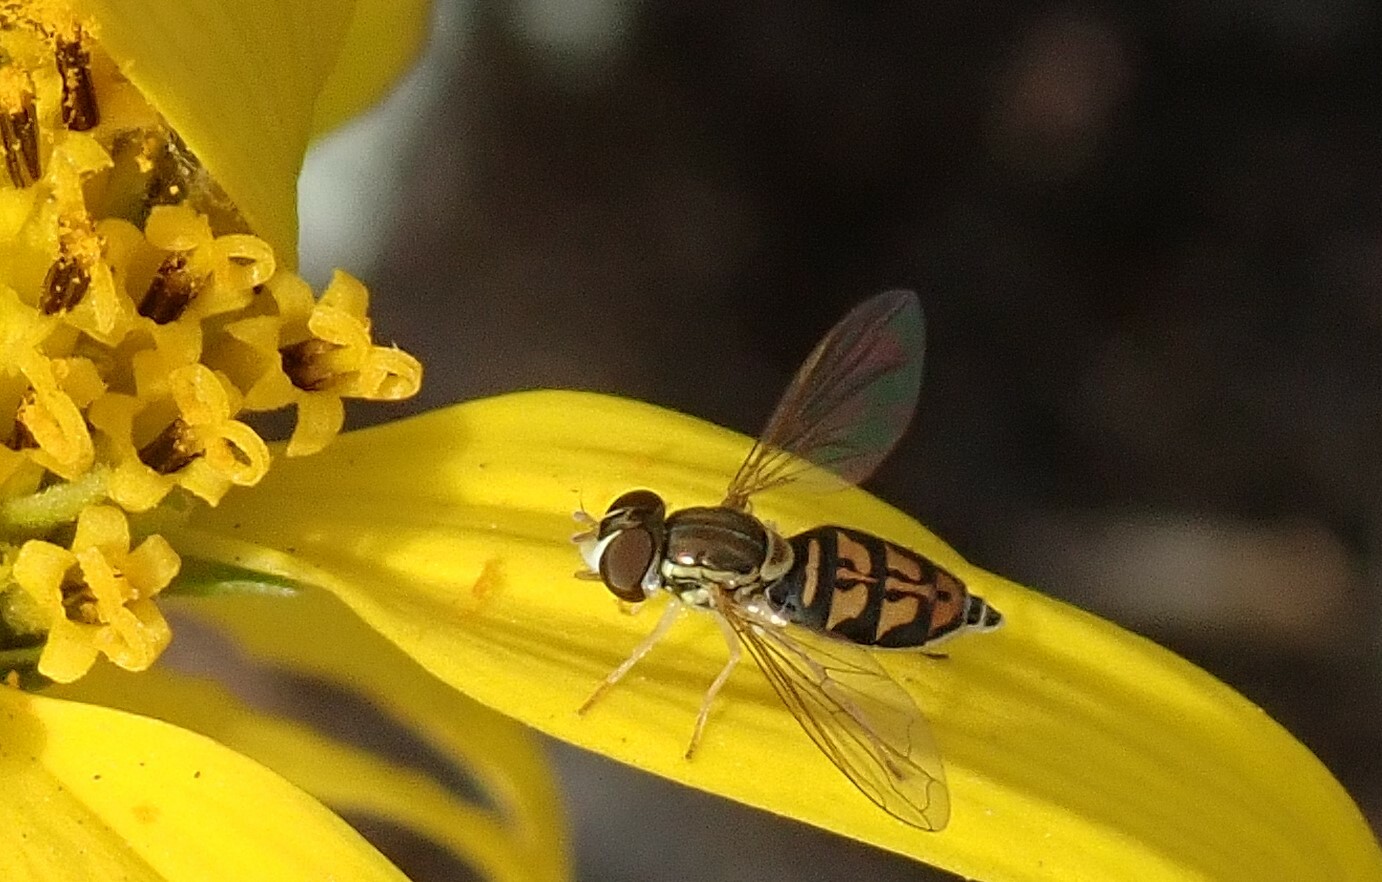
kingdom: Animalia
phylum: Arthropoda
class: Insecta
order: Diptera
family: Syrphidae
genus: Toxomerus
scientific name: Toxomerus marginatus
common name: Syrphid fly
